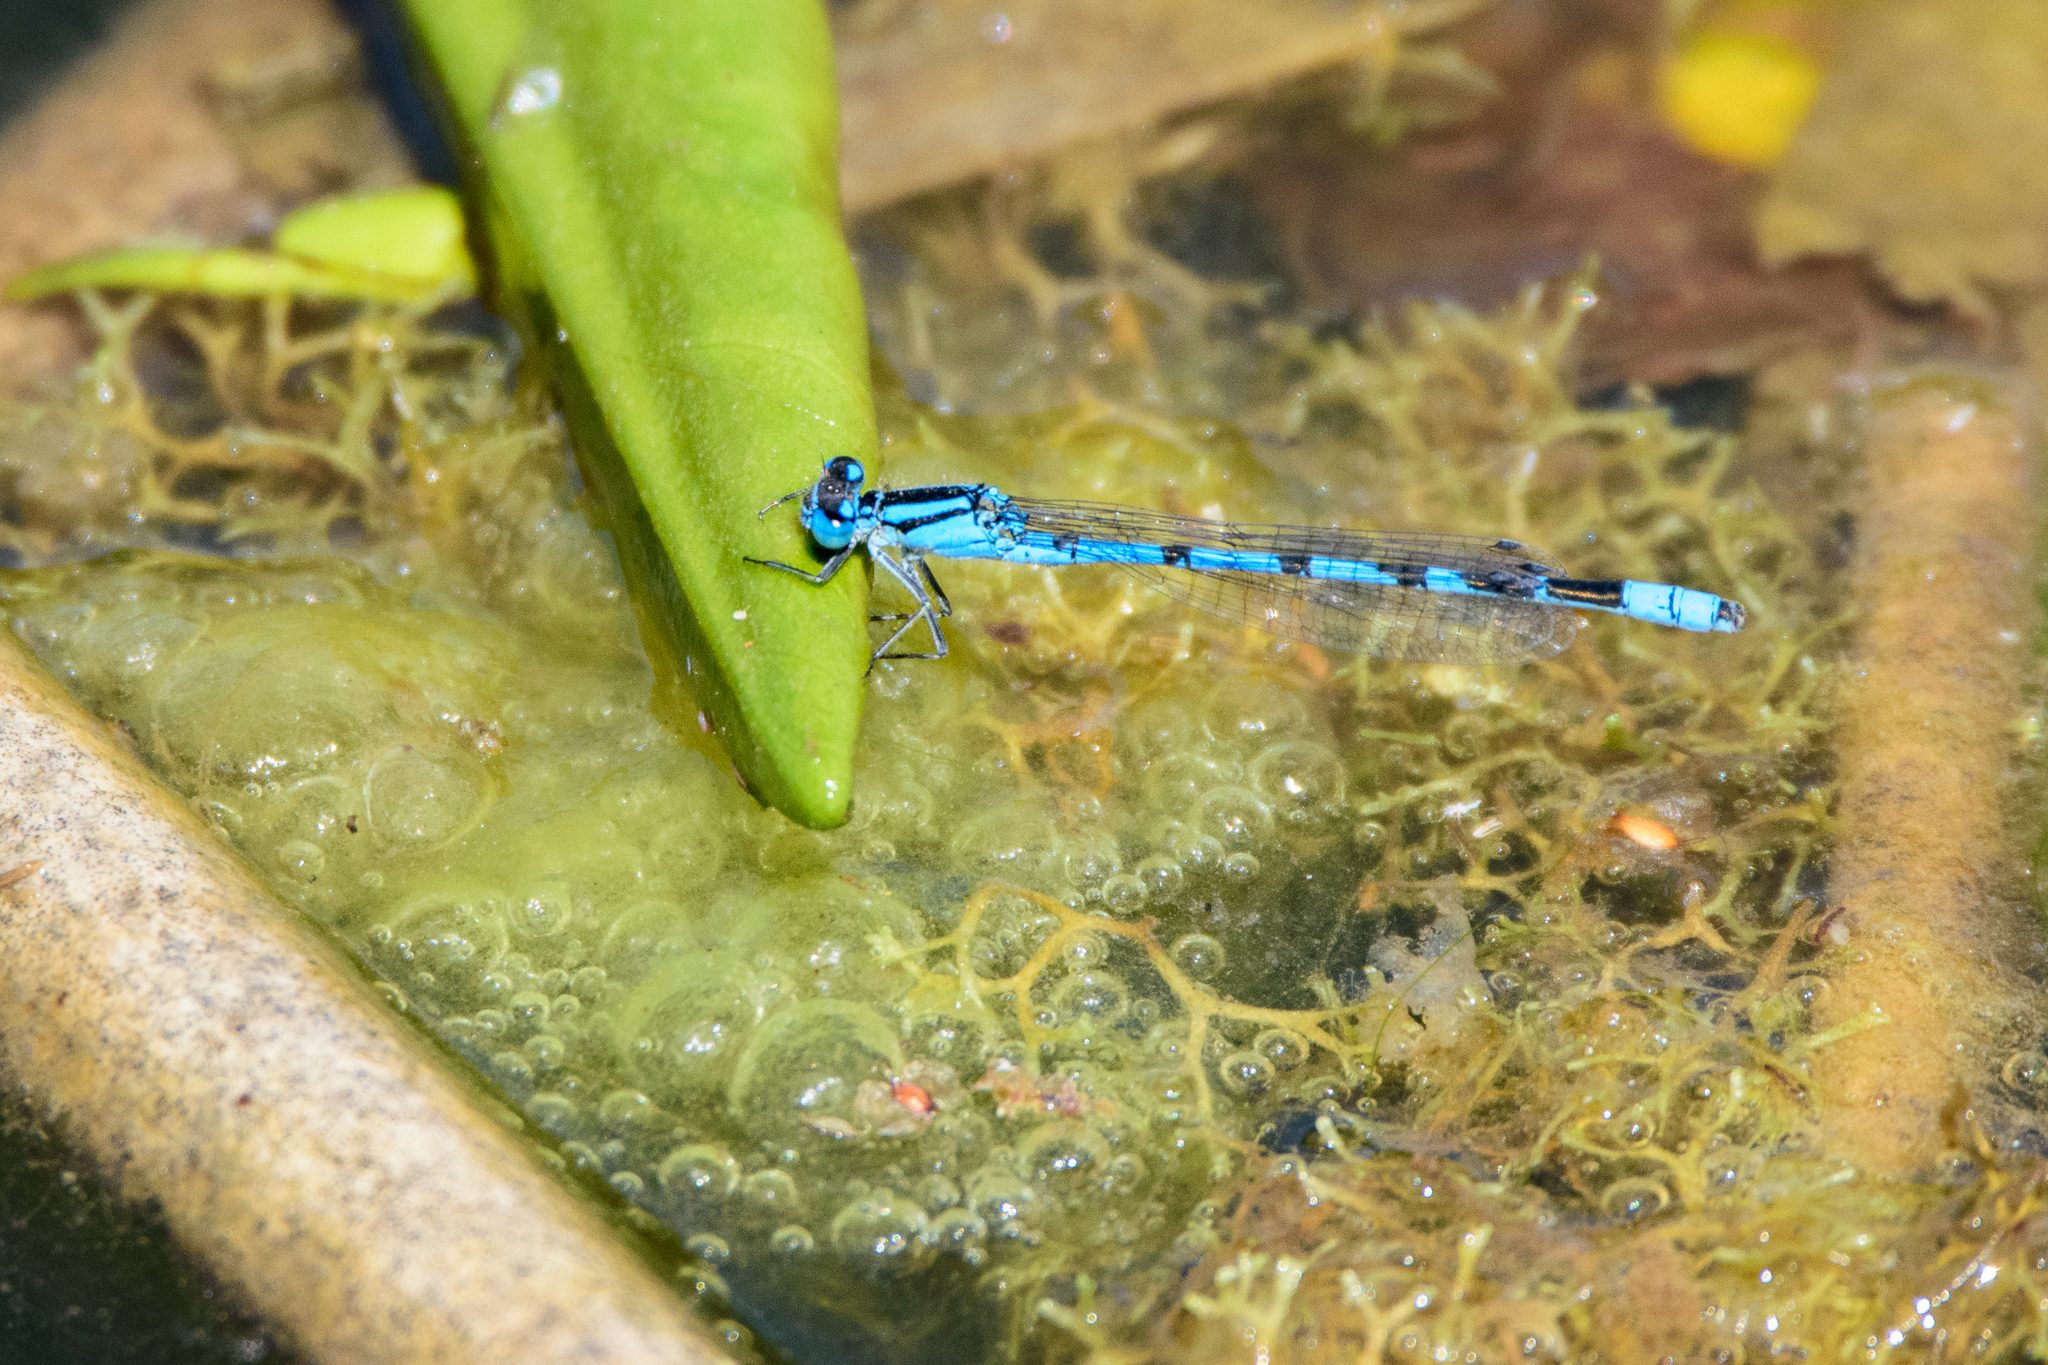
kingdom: Animalia
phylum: Arthropoda
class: Insecta
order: Odonata
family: Coenagrionidae
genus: Enallagma
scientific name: Enallagma cyathigerum
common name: Common blue damselfly
